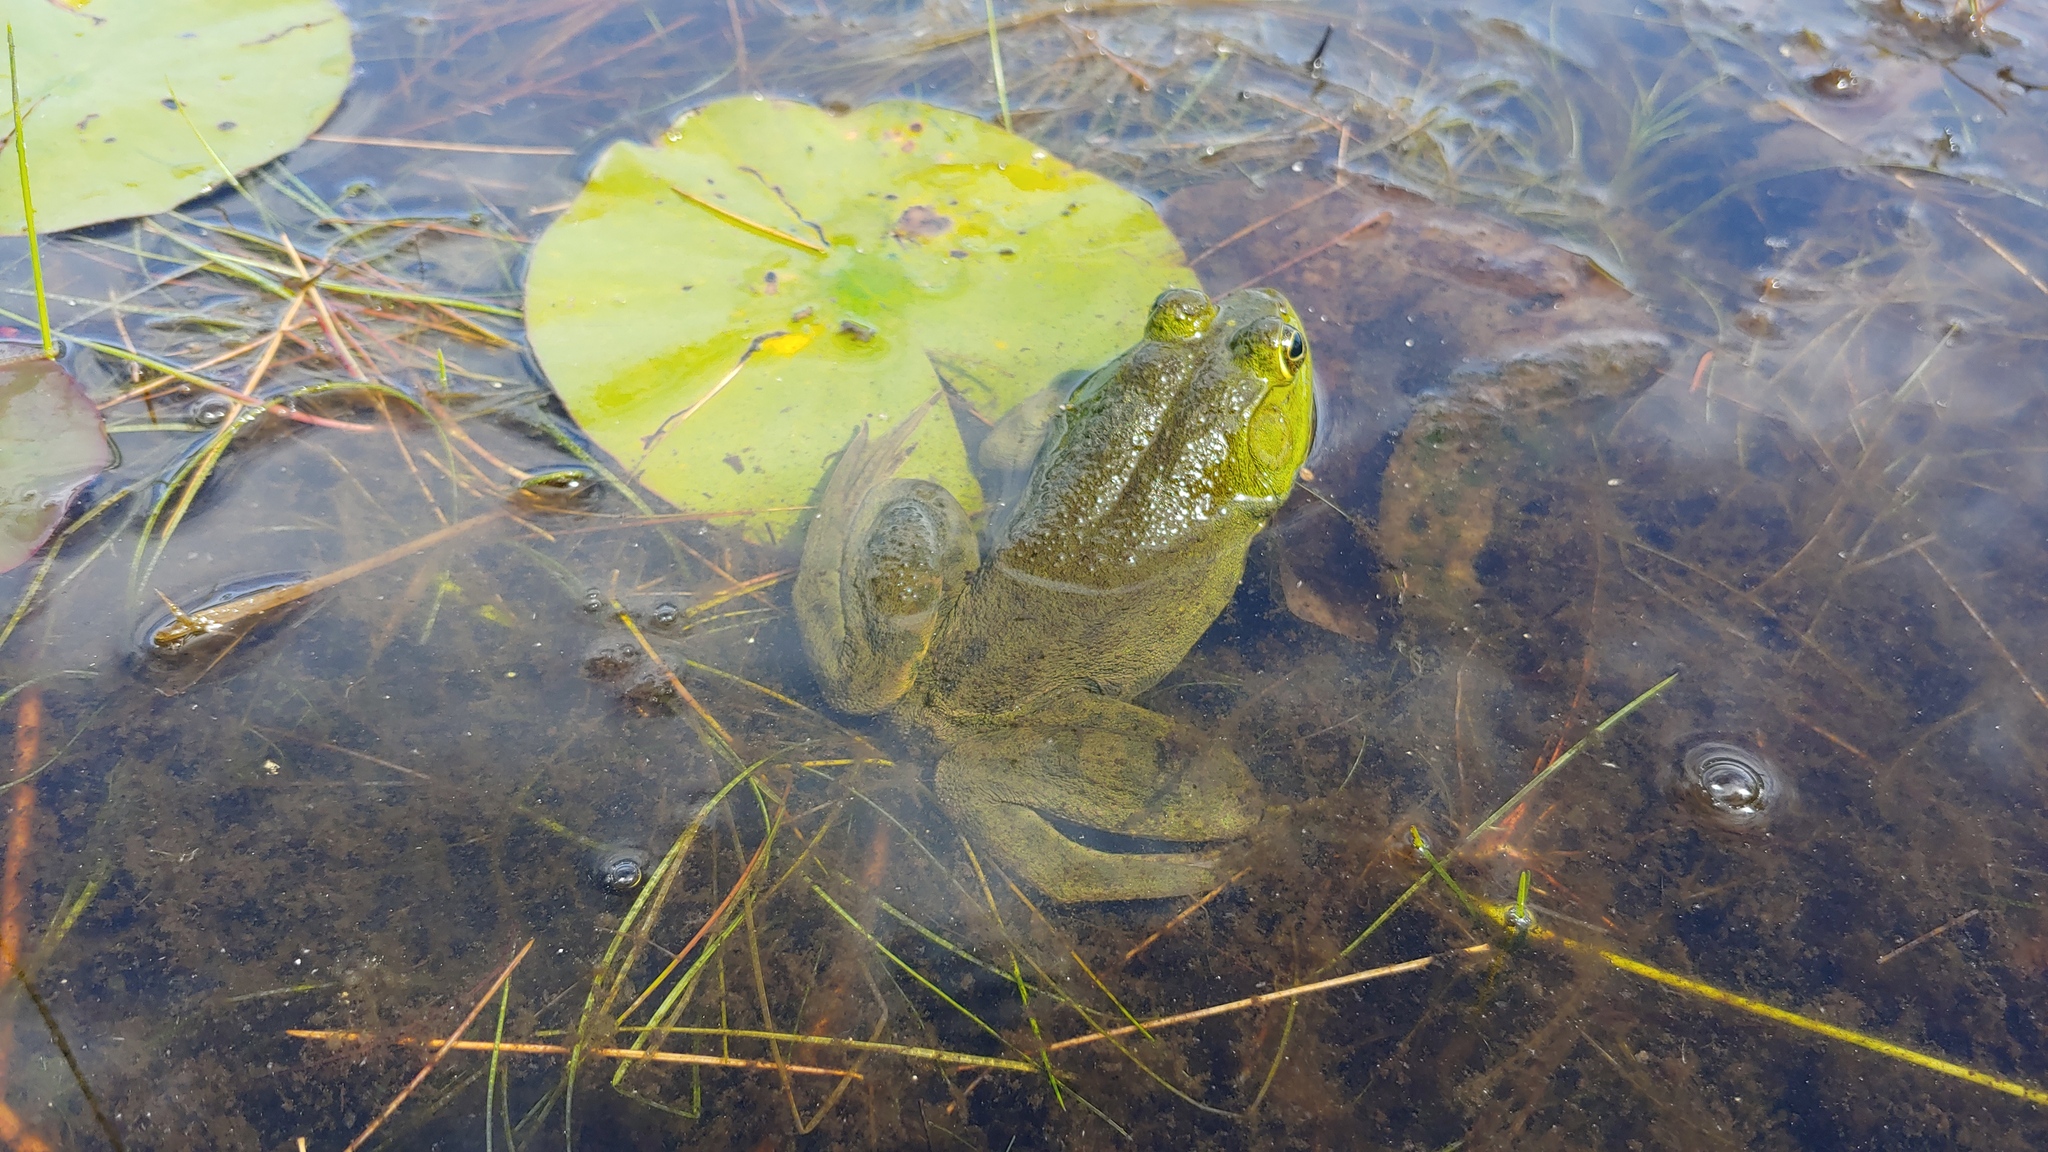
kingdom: Animalia
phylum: Chordata
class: Amphibia
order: Anura
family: Ranidae
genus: Lithobates
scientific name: Lithobates catesbeianus
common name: American bullfrog
